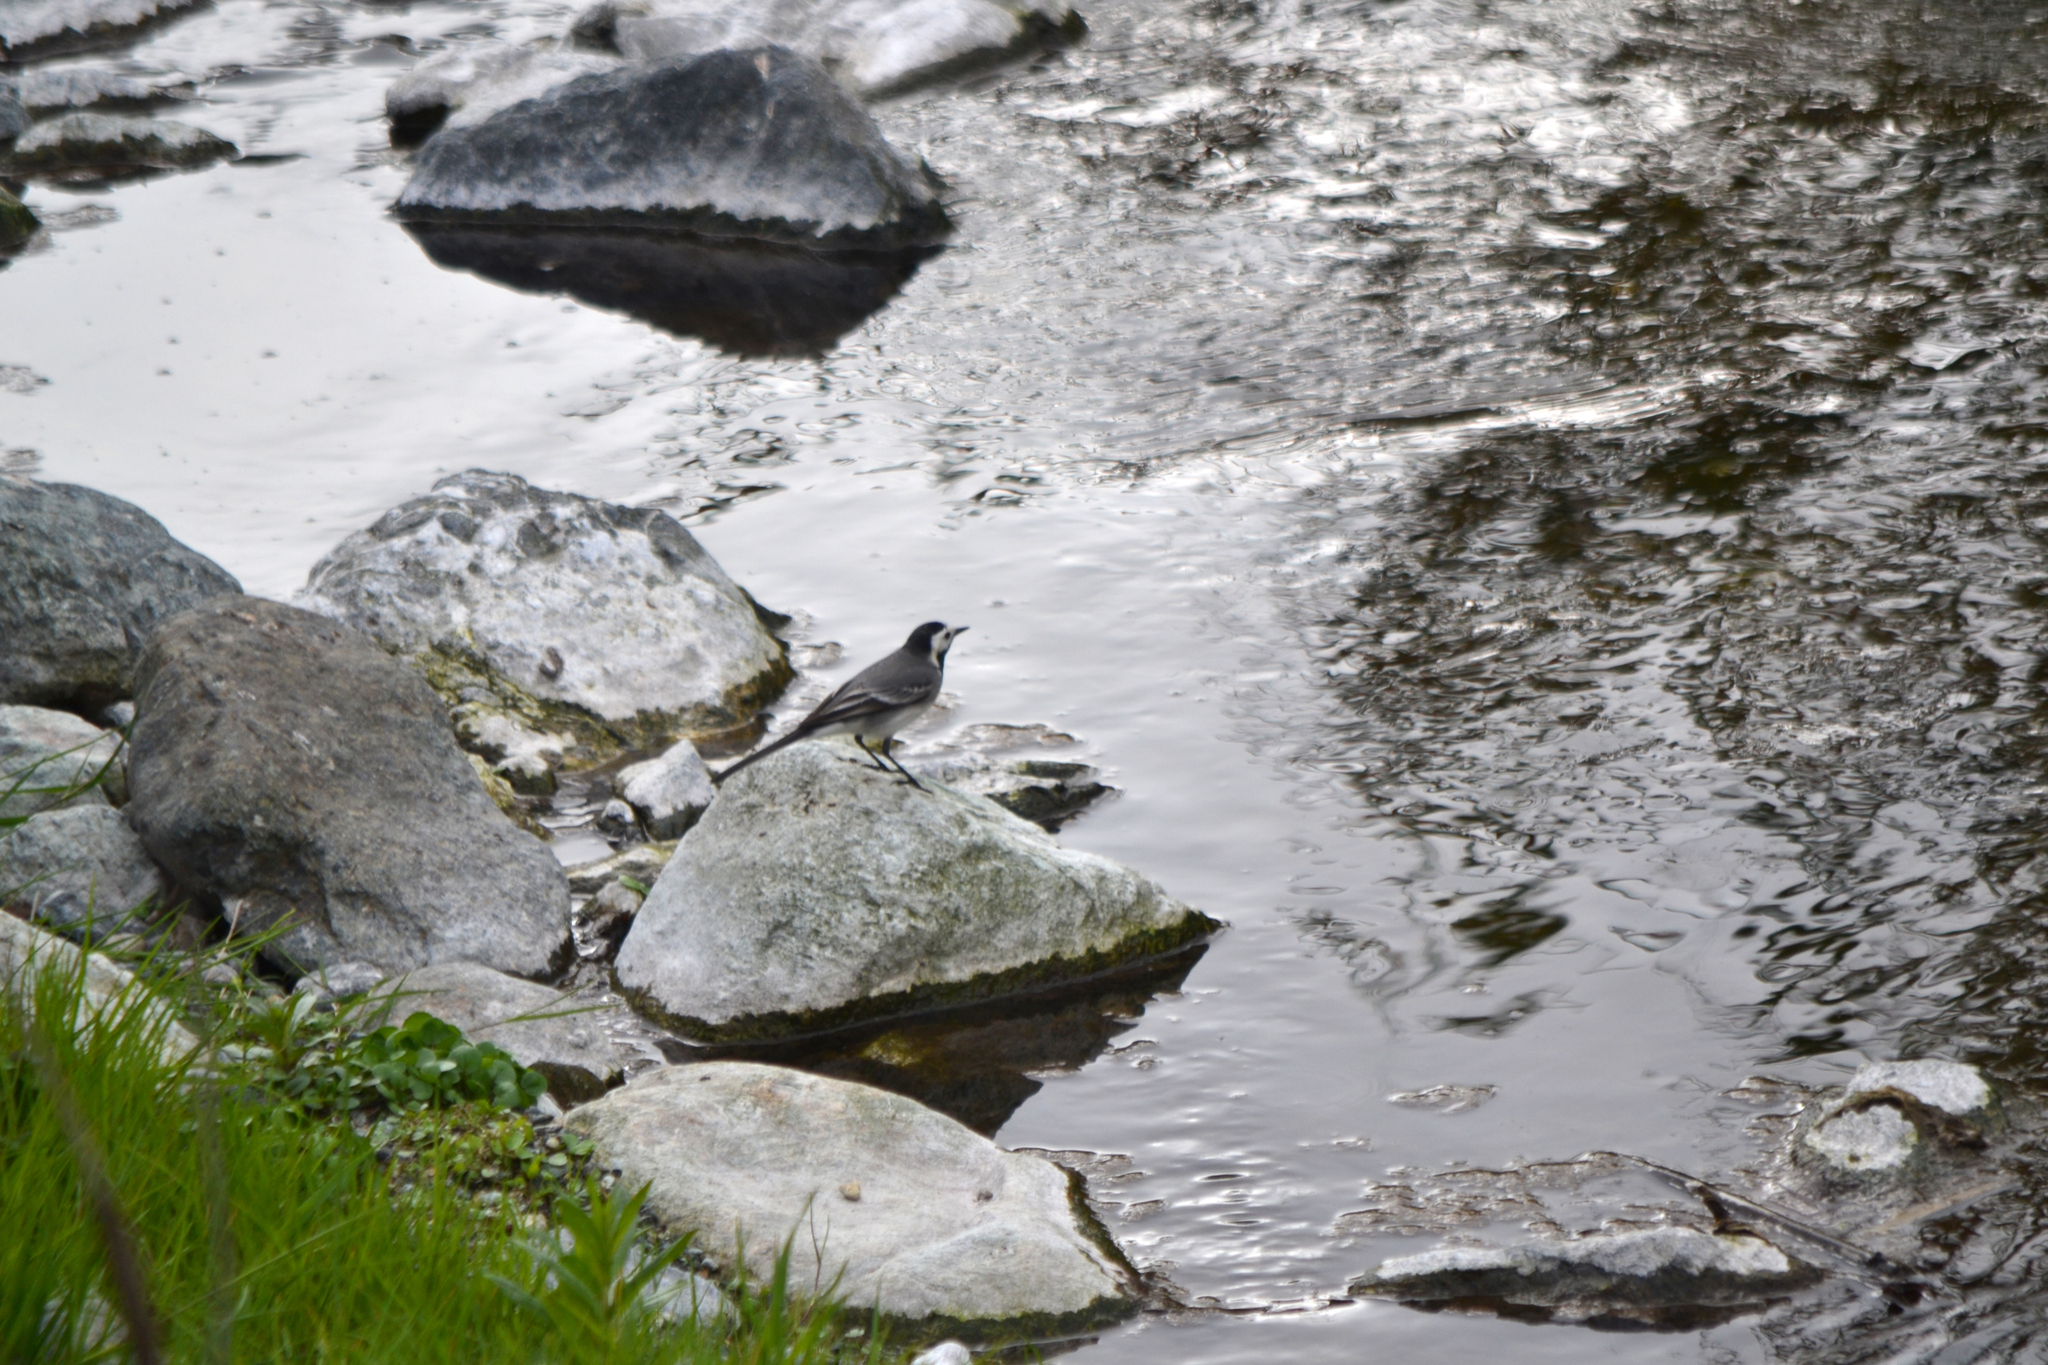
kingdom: Animalia
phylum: Chordata
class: Aves
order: Passeriformes
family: Motacillidae
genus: Motacilla
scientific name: Motacilla alba
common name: White wagtail
